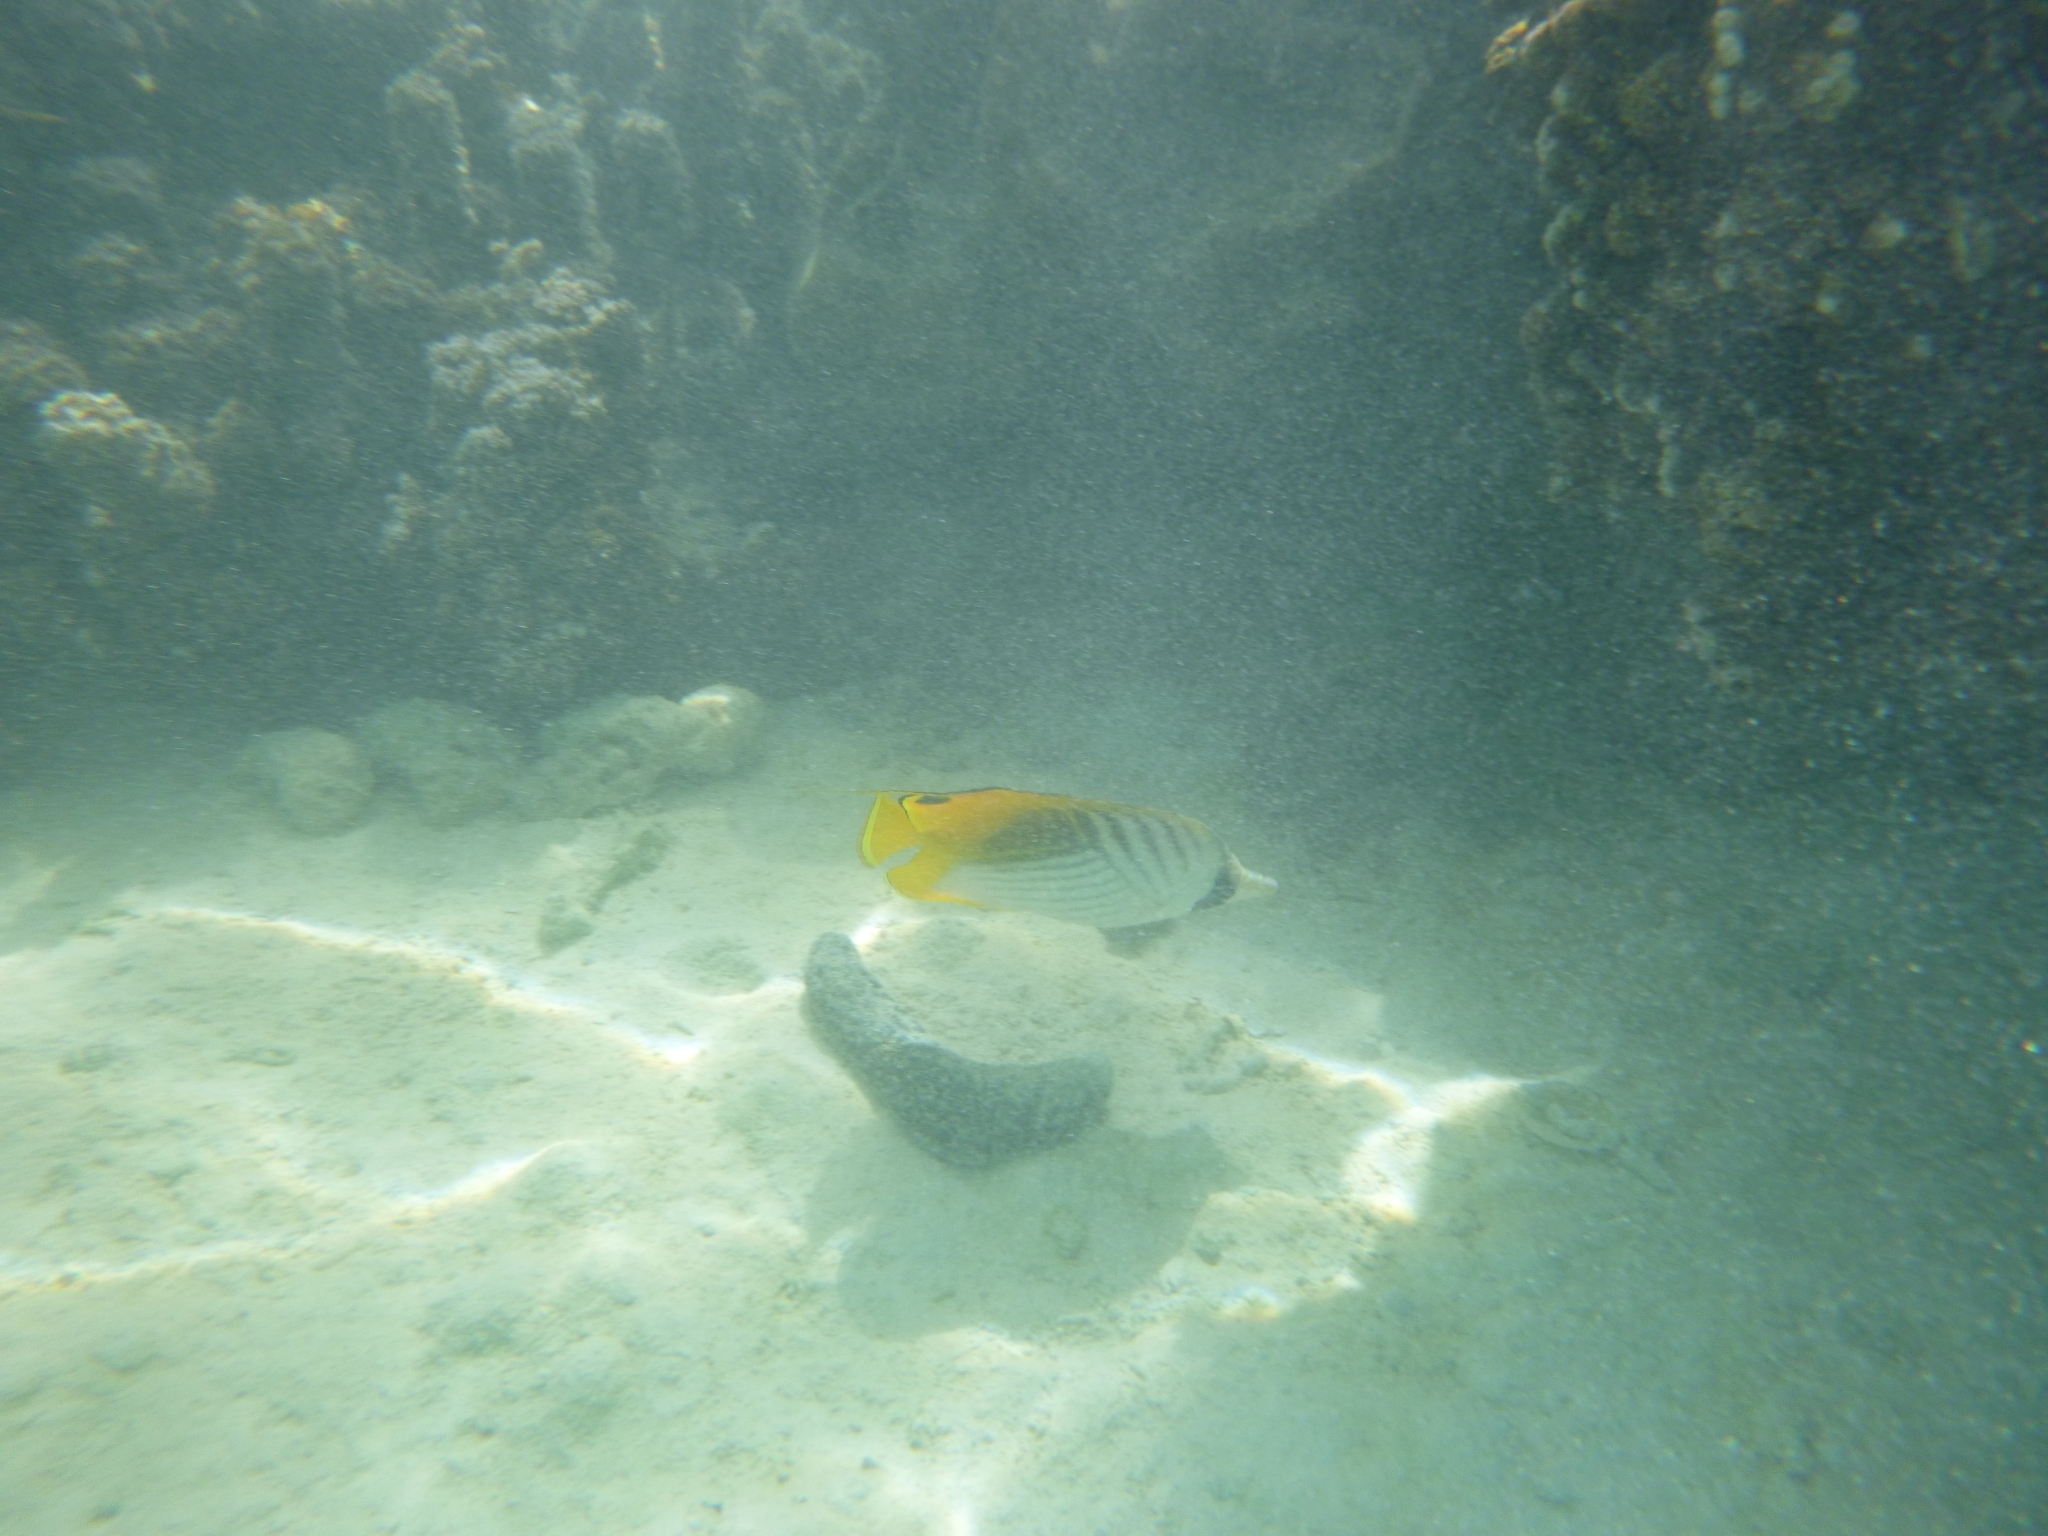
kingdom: Animalia
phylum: Chordata
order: Perciformes
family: Chaetodontidae
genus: Chaetodon
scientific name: Chaetodon auriga
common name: Threadfin butterflyfish
